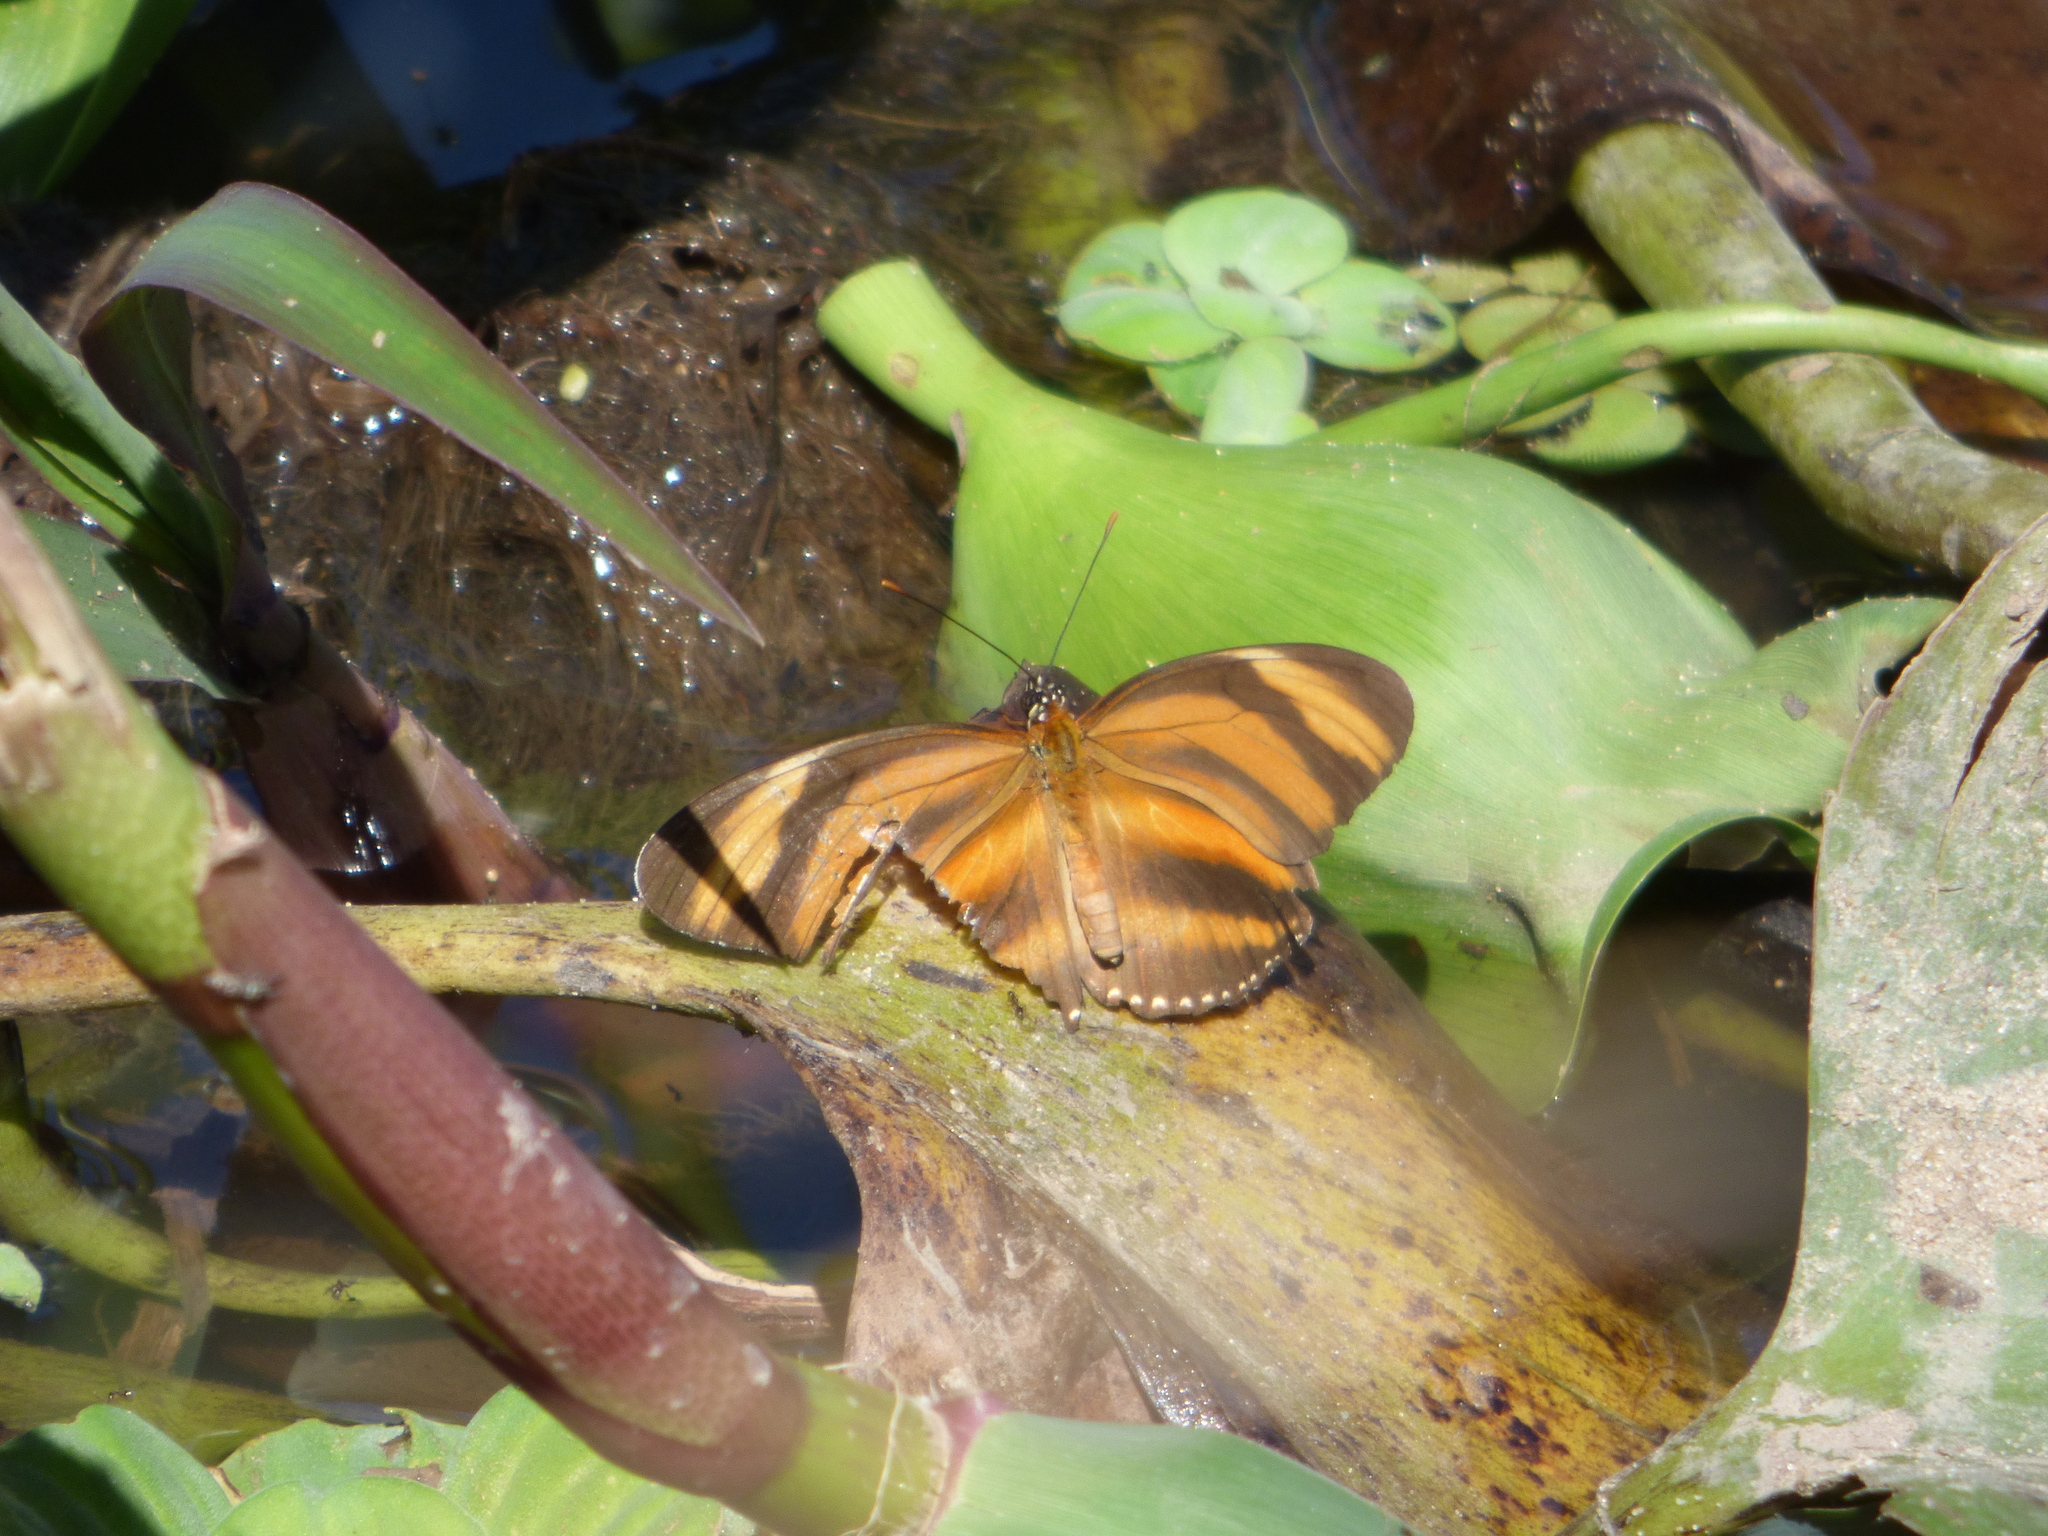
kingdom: Animalia
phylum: Arthropoda
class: Insecta
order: Lepidoptera
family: Nymphalidae
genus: Dryadula
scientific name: Dryadula phaetusa
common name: Banded orange heliconian
